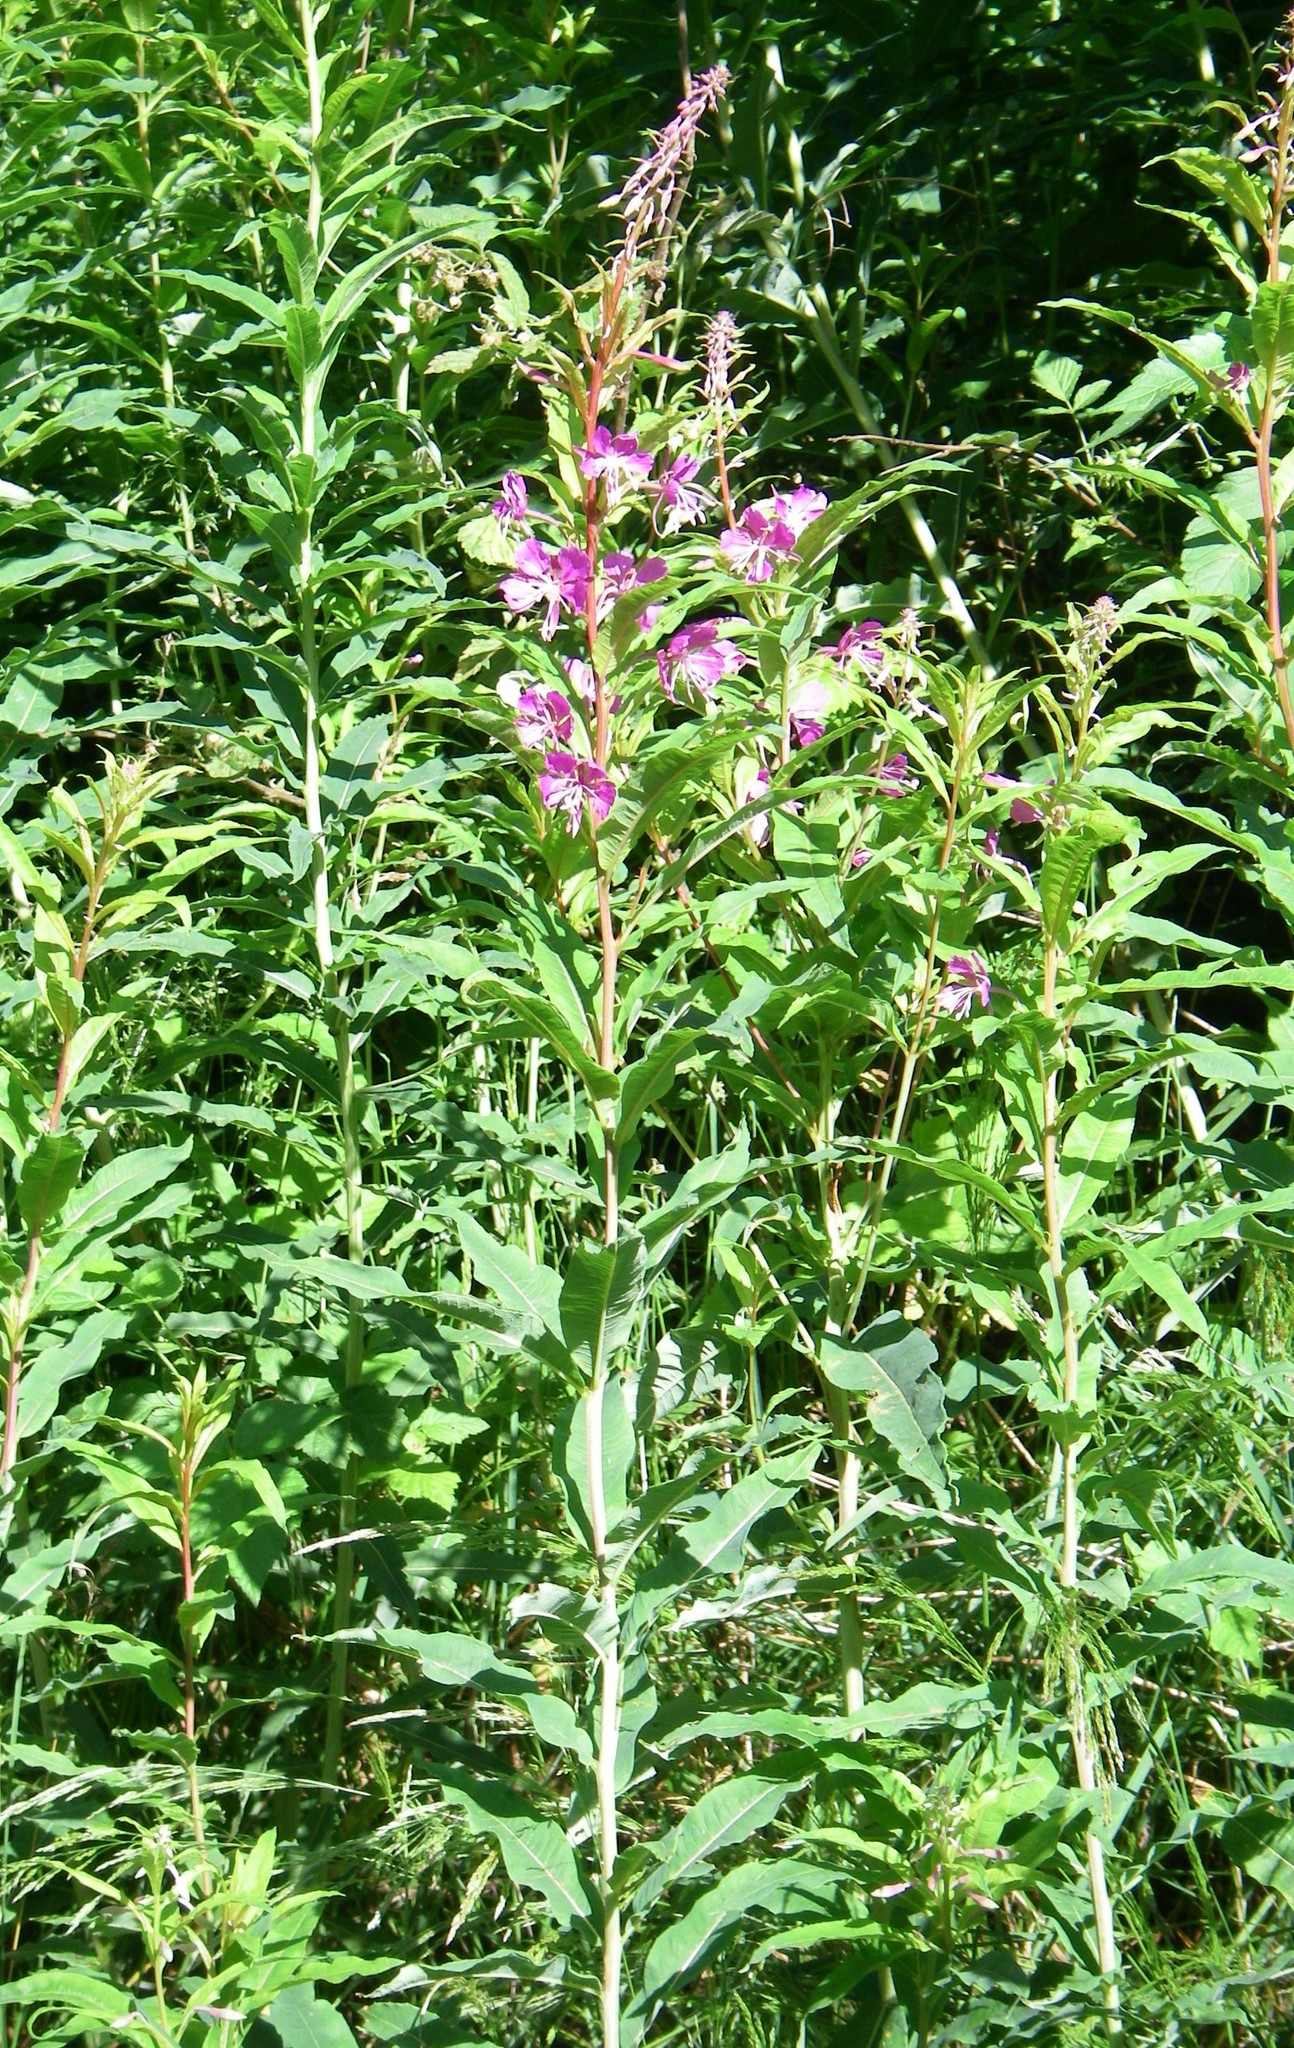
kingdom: Plantae
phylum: Tracheophyta
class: Magnoliopsida
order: Myrtales
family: Onagraceae
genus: Chamaenerion
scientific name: Chamaenerion angustifolium
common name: Fireweed
